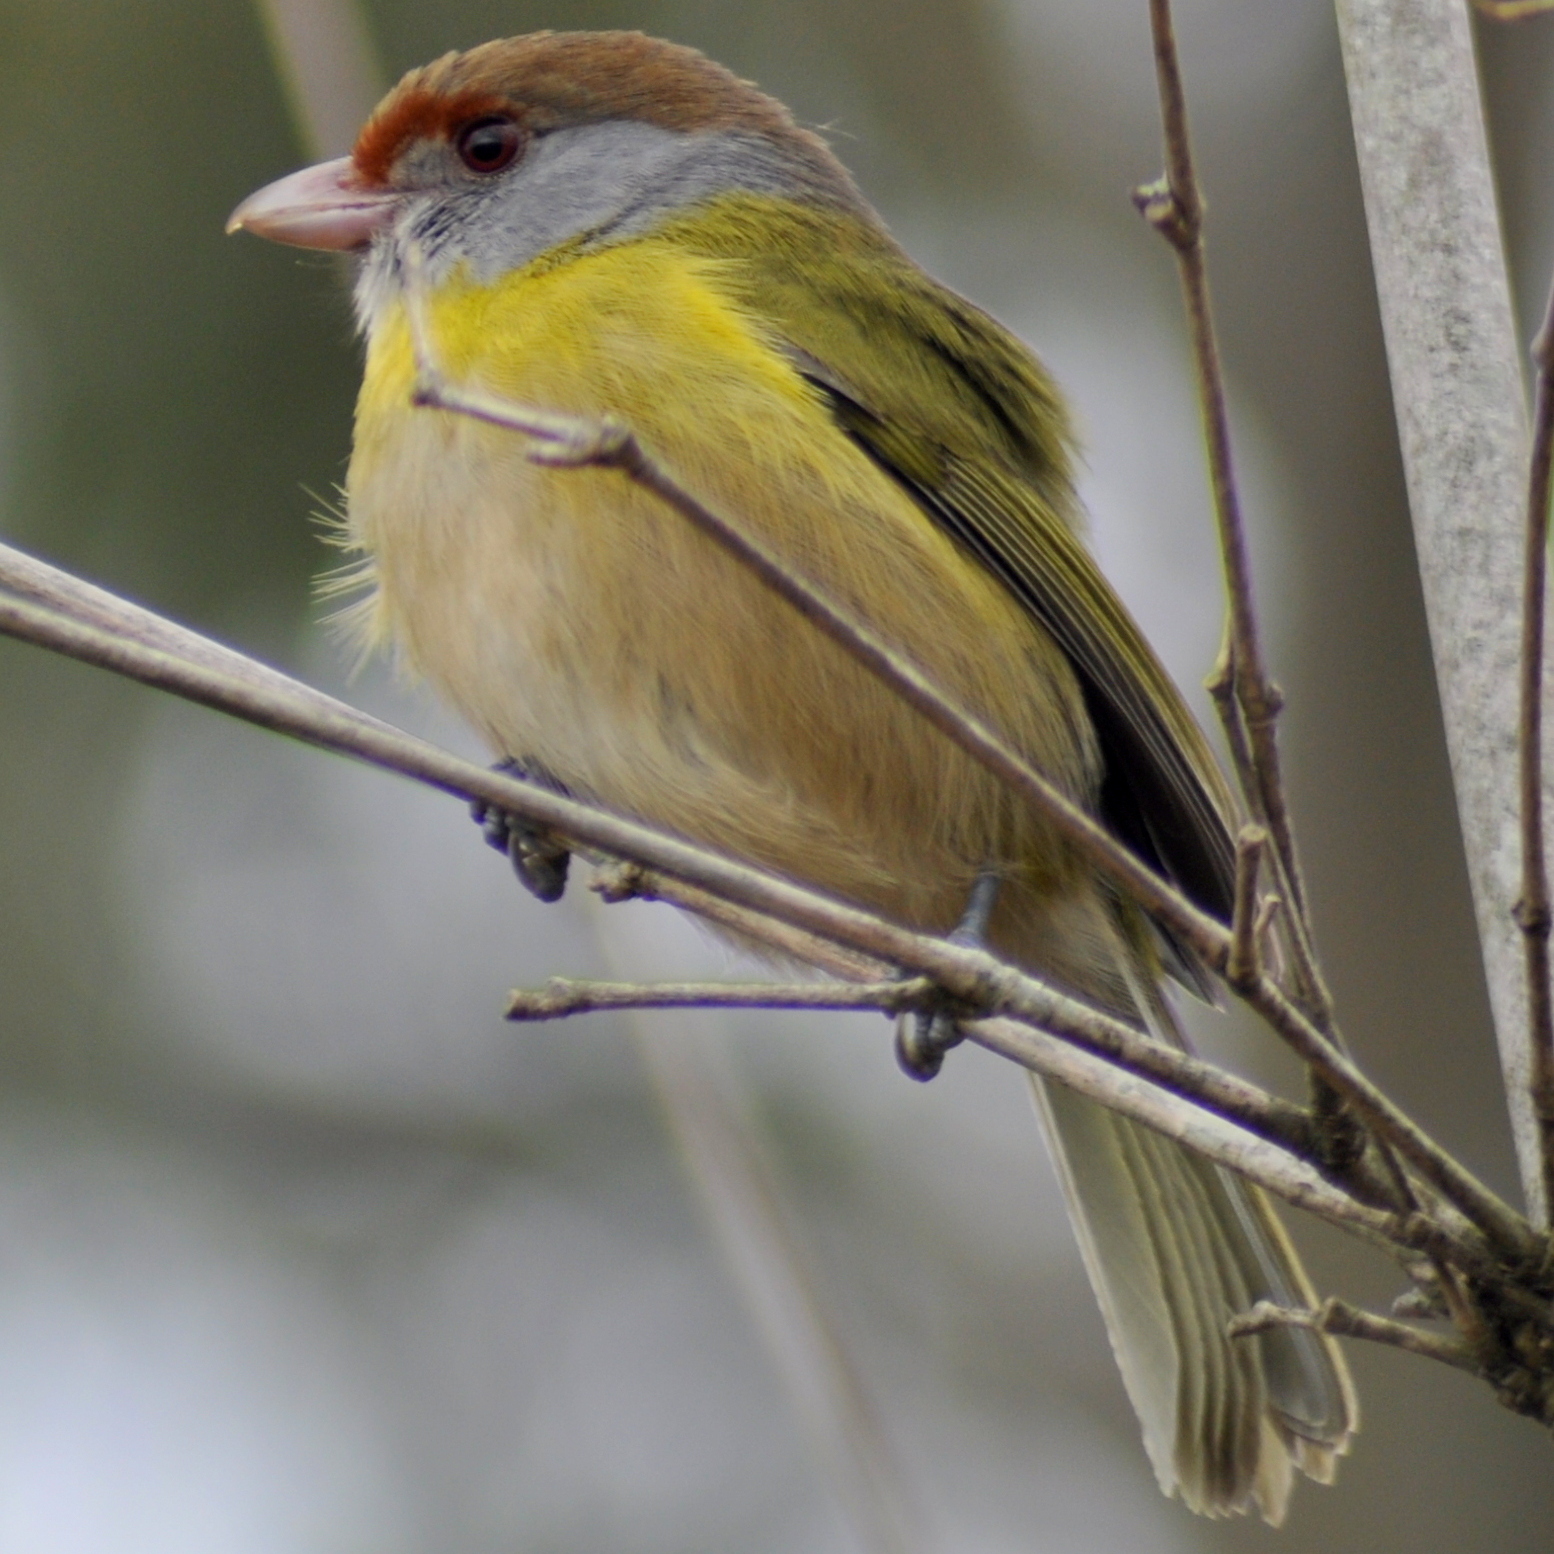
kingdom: Animalia
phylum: Chordata
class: Aves
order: Passeriformes
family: Vireonidae
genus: Cyclarhis
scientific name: Cyclarhis gujanensis
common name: Rufous-browed peppershrike
